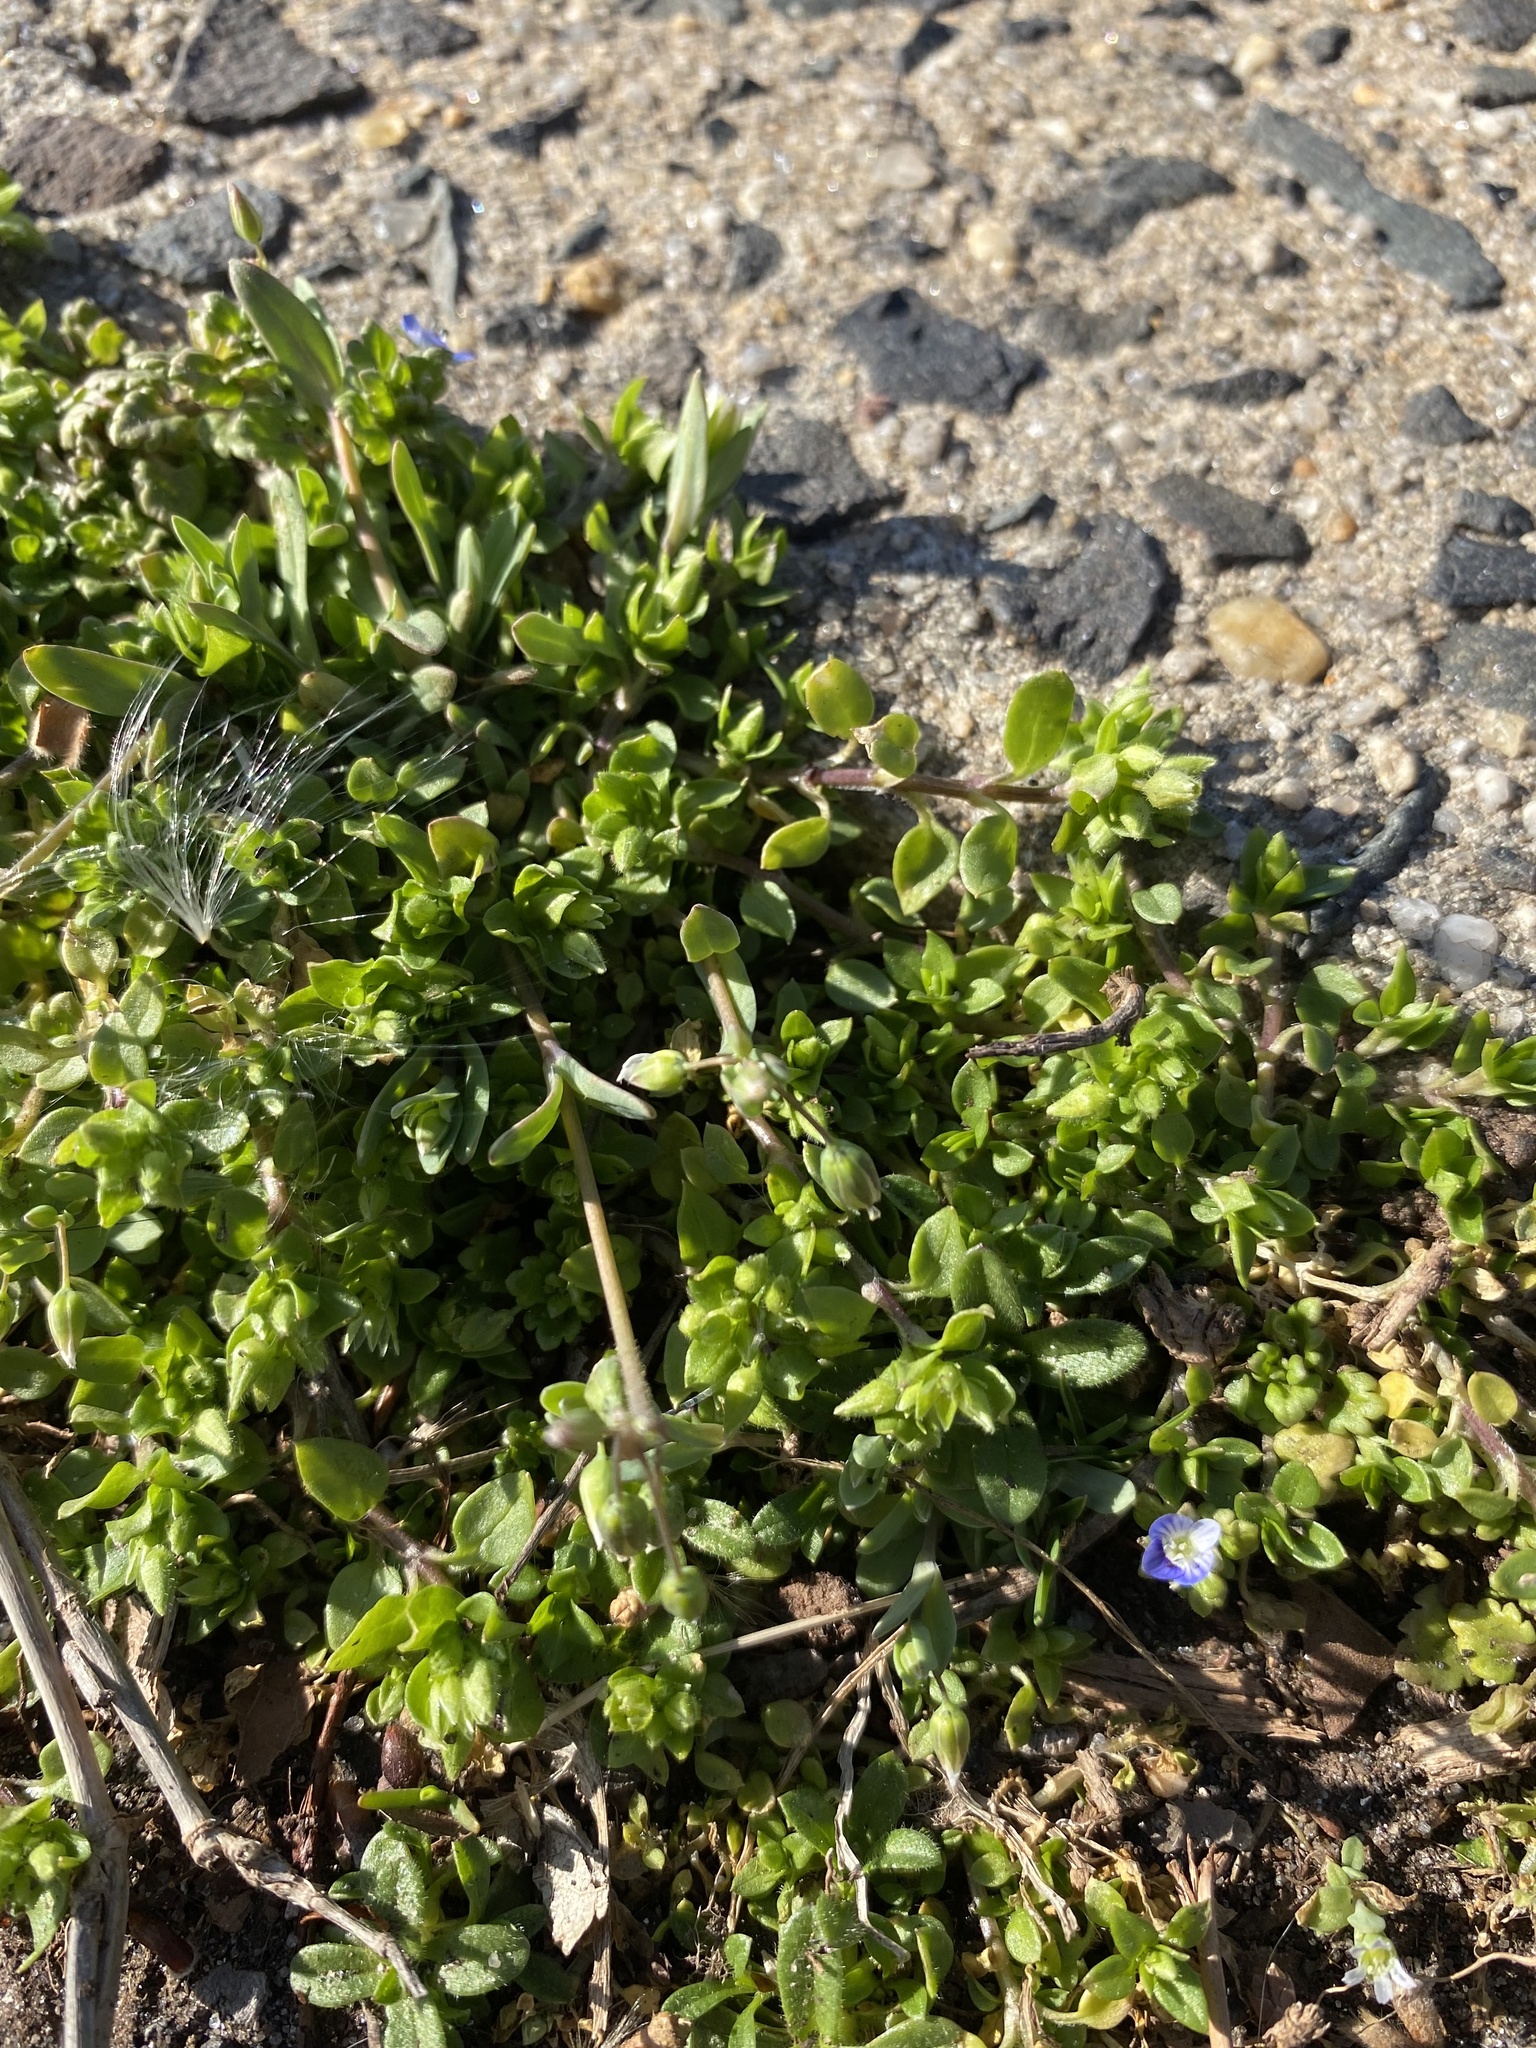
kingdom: Plantae
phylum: Tracheophyta
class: Magnoliopsida
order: Lamiales
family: Plantaginaceae
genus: Veronica
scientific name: Veronica polita
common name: Grey field-speedwell
